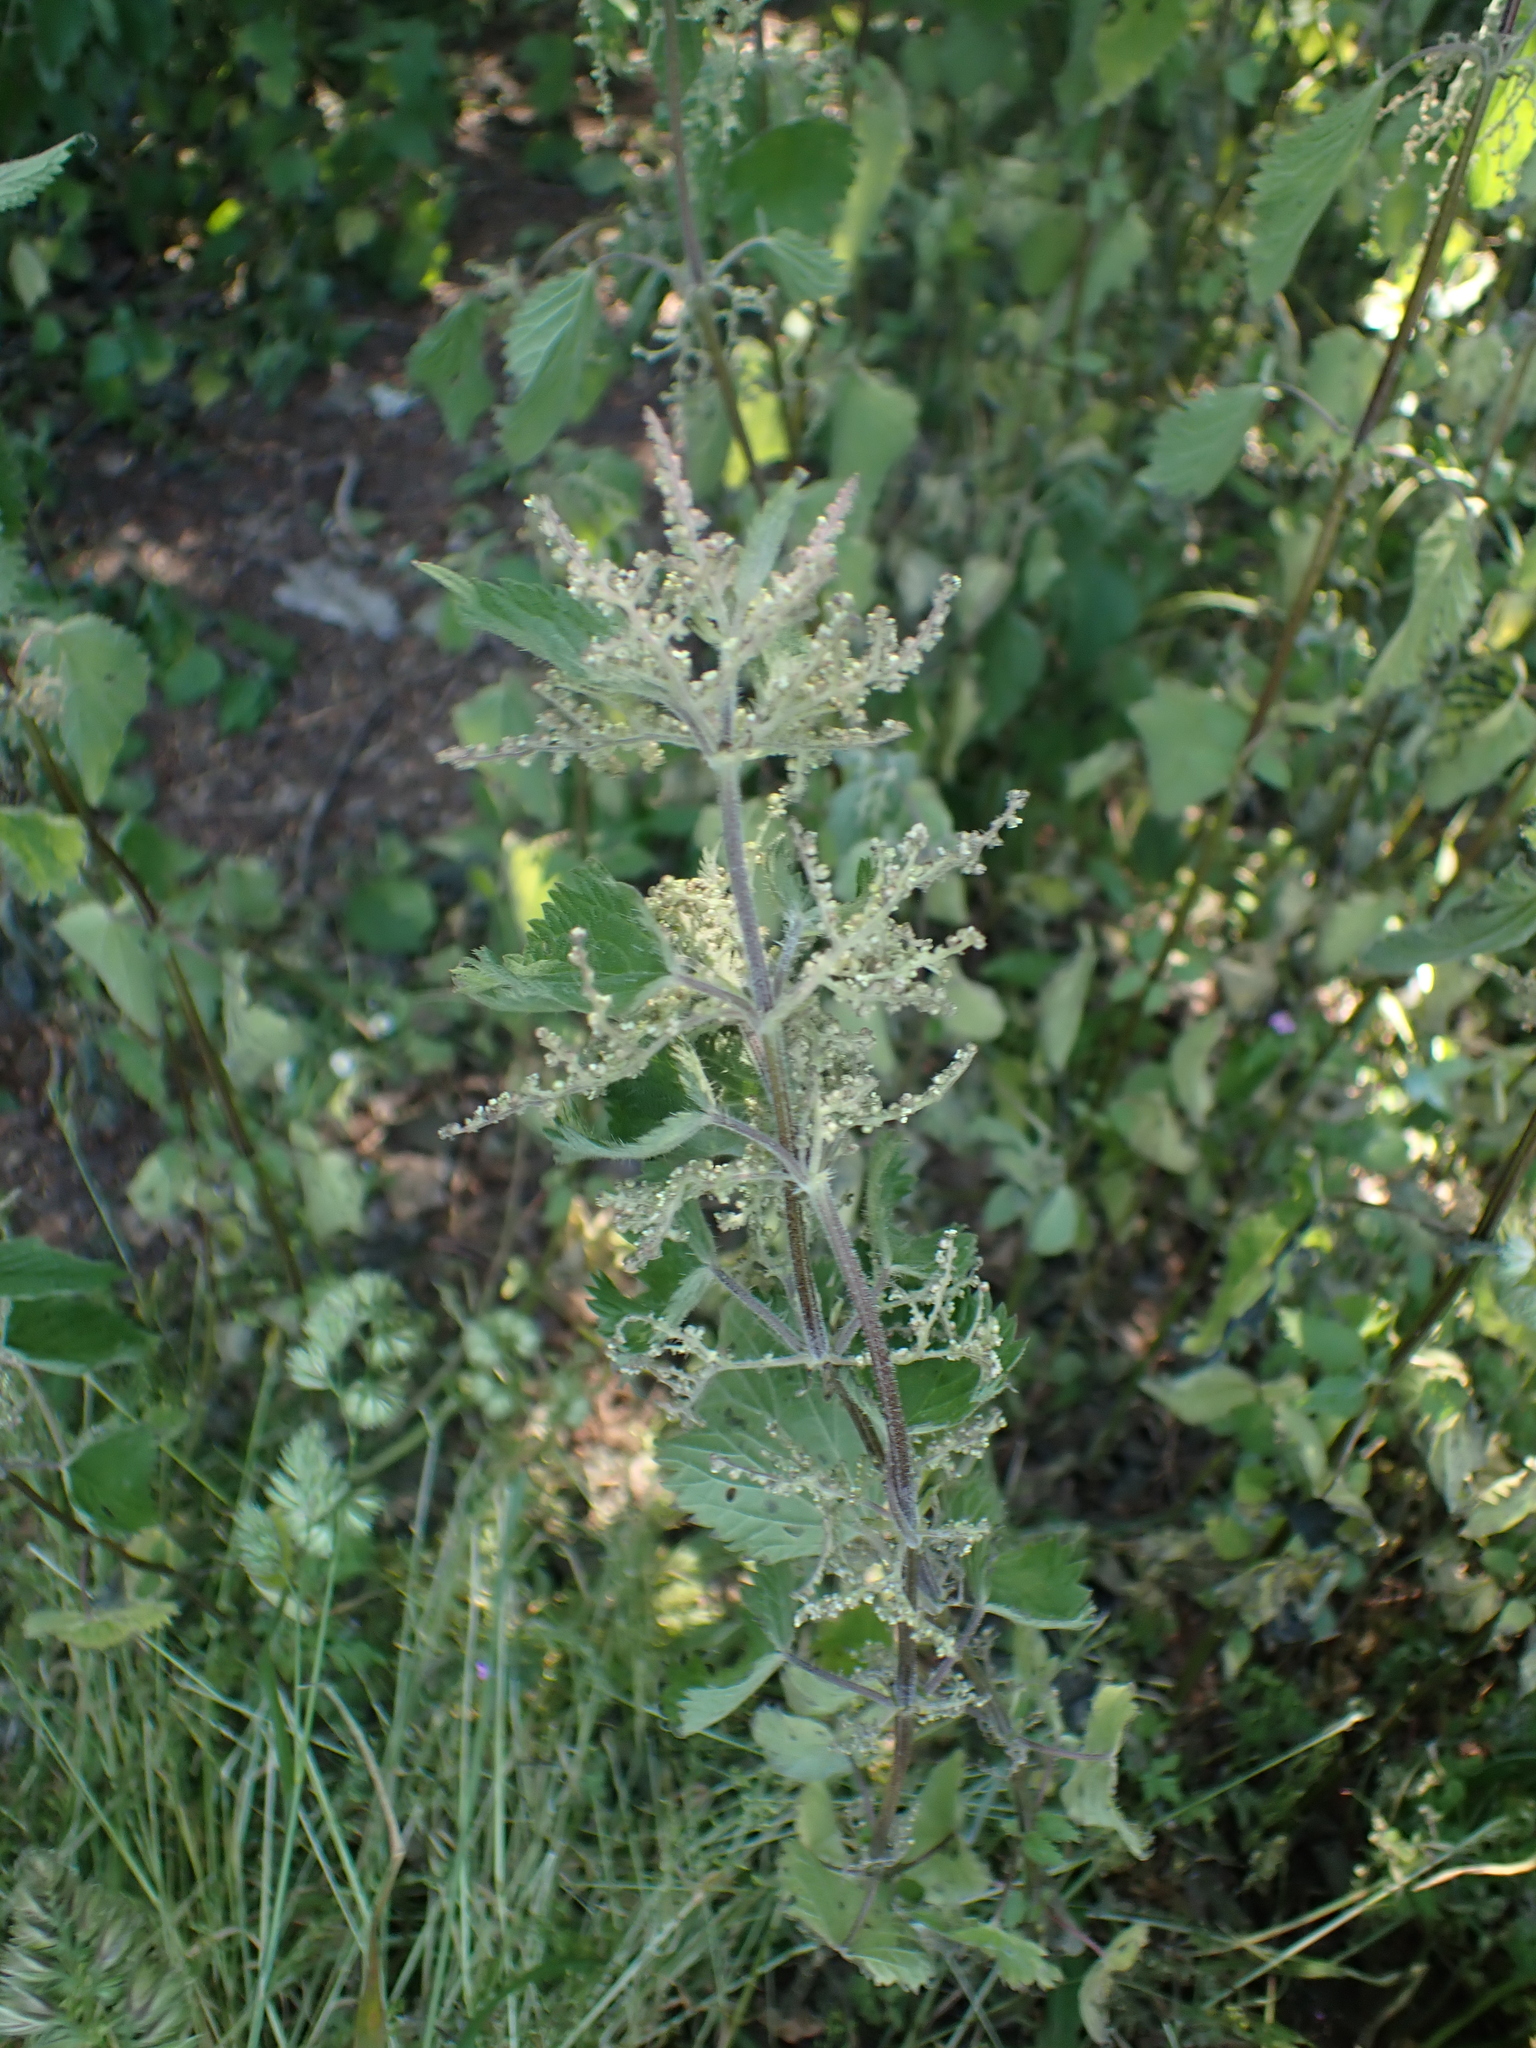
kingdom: Plantae
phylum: Tracheophyta
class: Magnoliopsida
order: Rosales
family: Urticaceae
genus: Urtica
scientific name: Urtica dioica
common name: Common nettle
